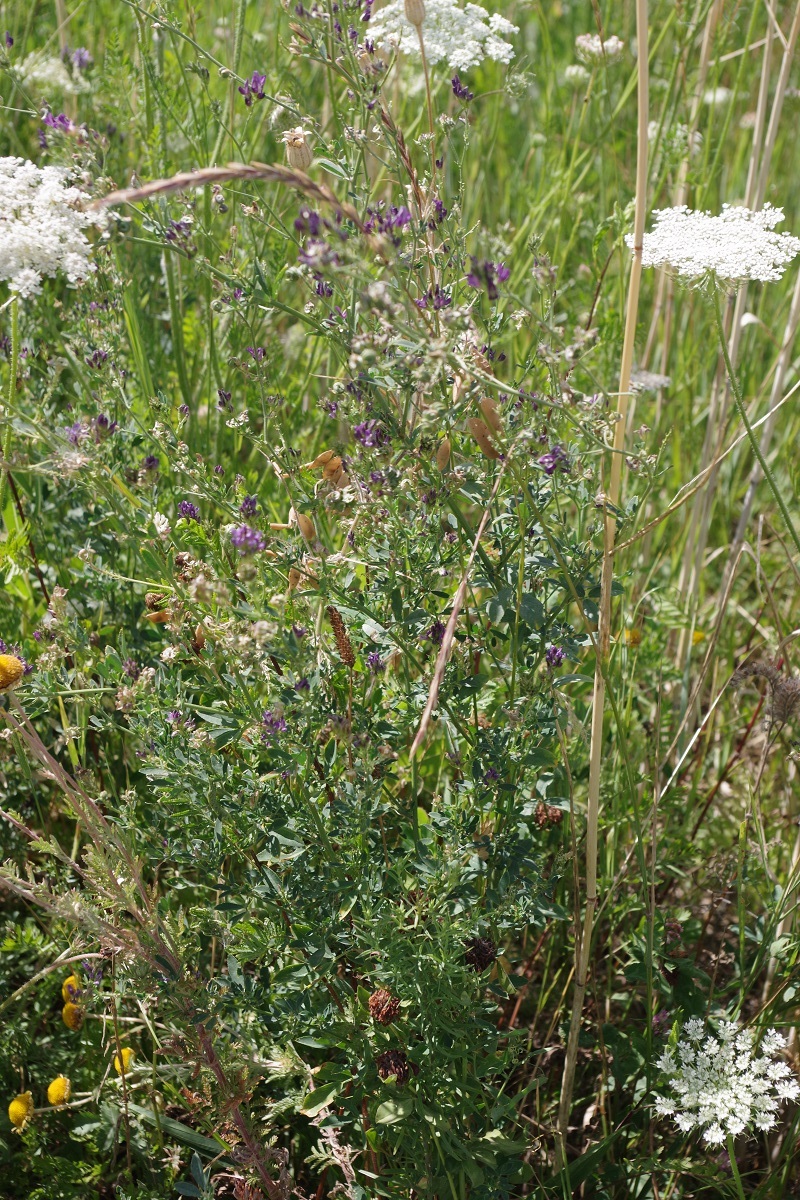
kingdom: Plantae
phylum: Tracheophyta
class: Magnoliopsida
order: Fabales
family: Fabaceae
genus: Medicago
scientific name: Medicago sativa
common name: Alfalfa
